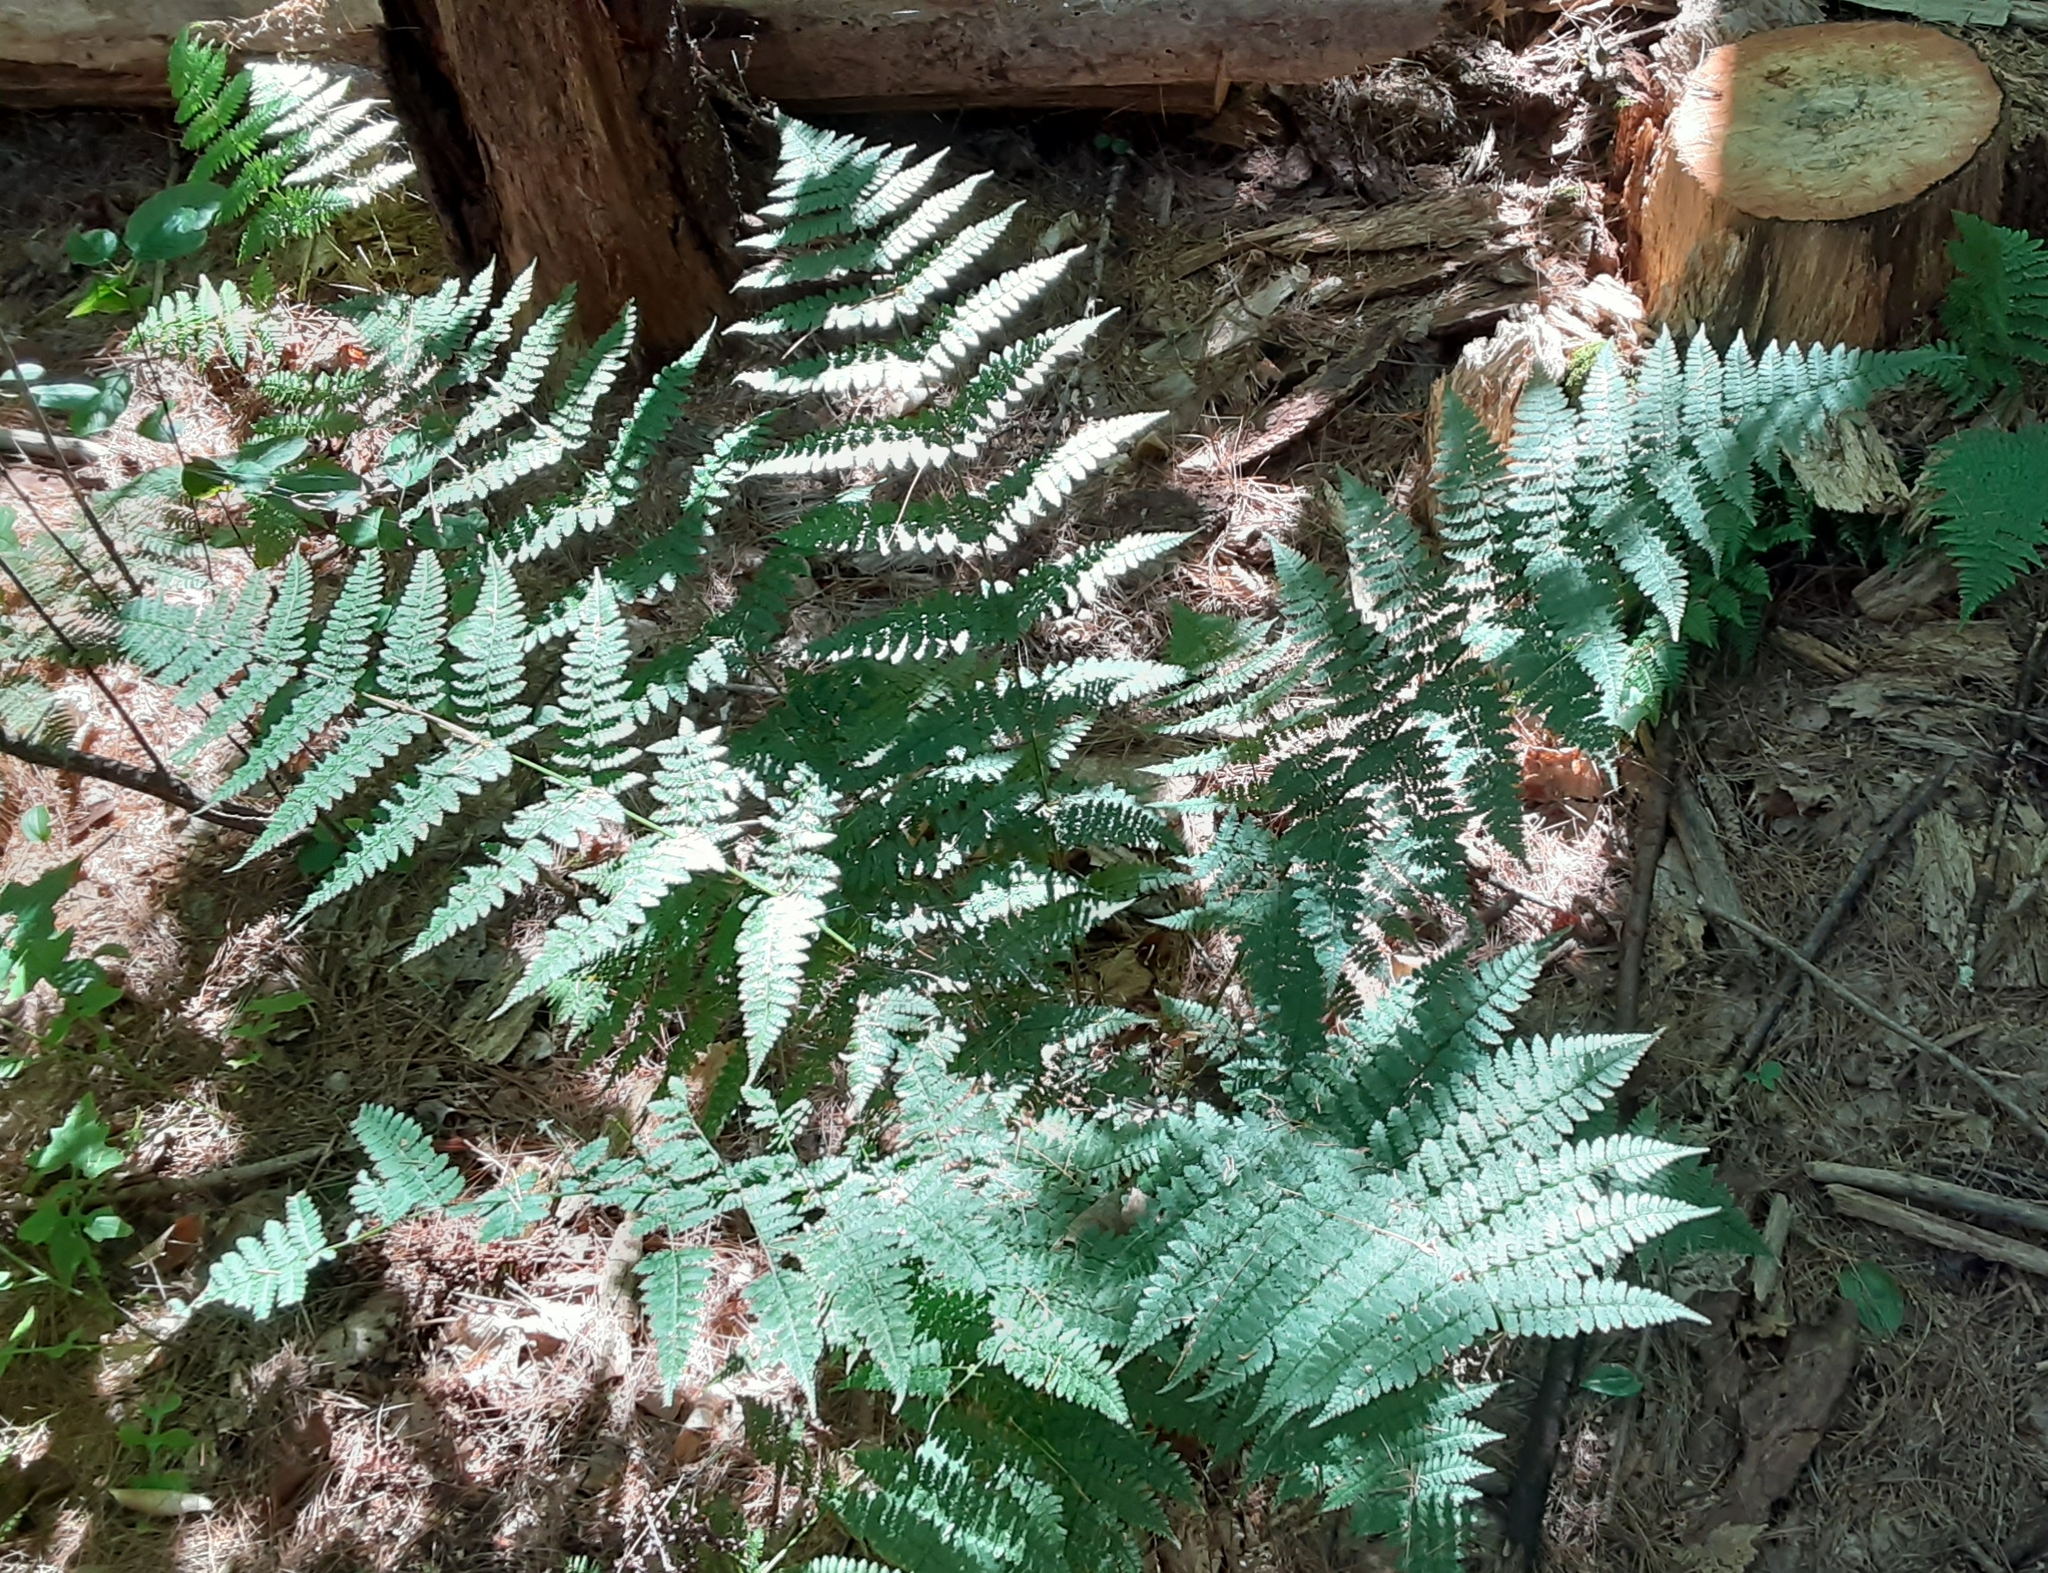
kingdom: Plantae
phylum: Tracheophyta
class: Polypodiopsida
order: Polypodiales
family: Dryopteridaceae
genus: Dryopteris
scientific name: Dryopteris intermedia
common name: Evergreen wood fern
